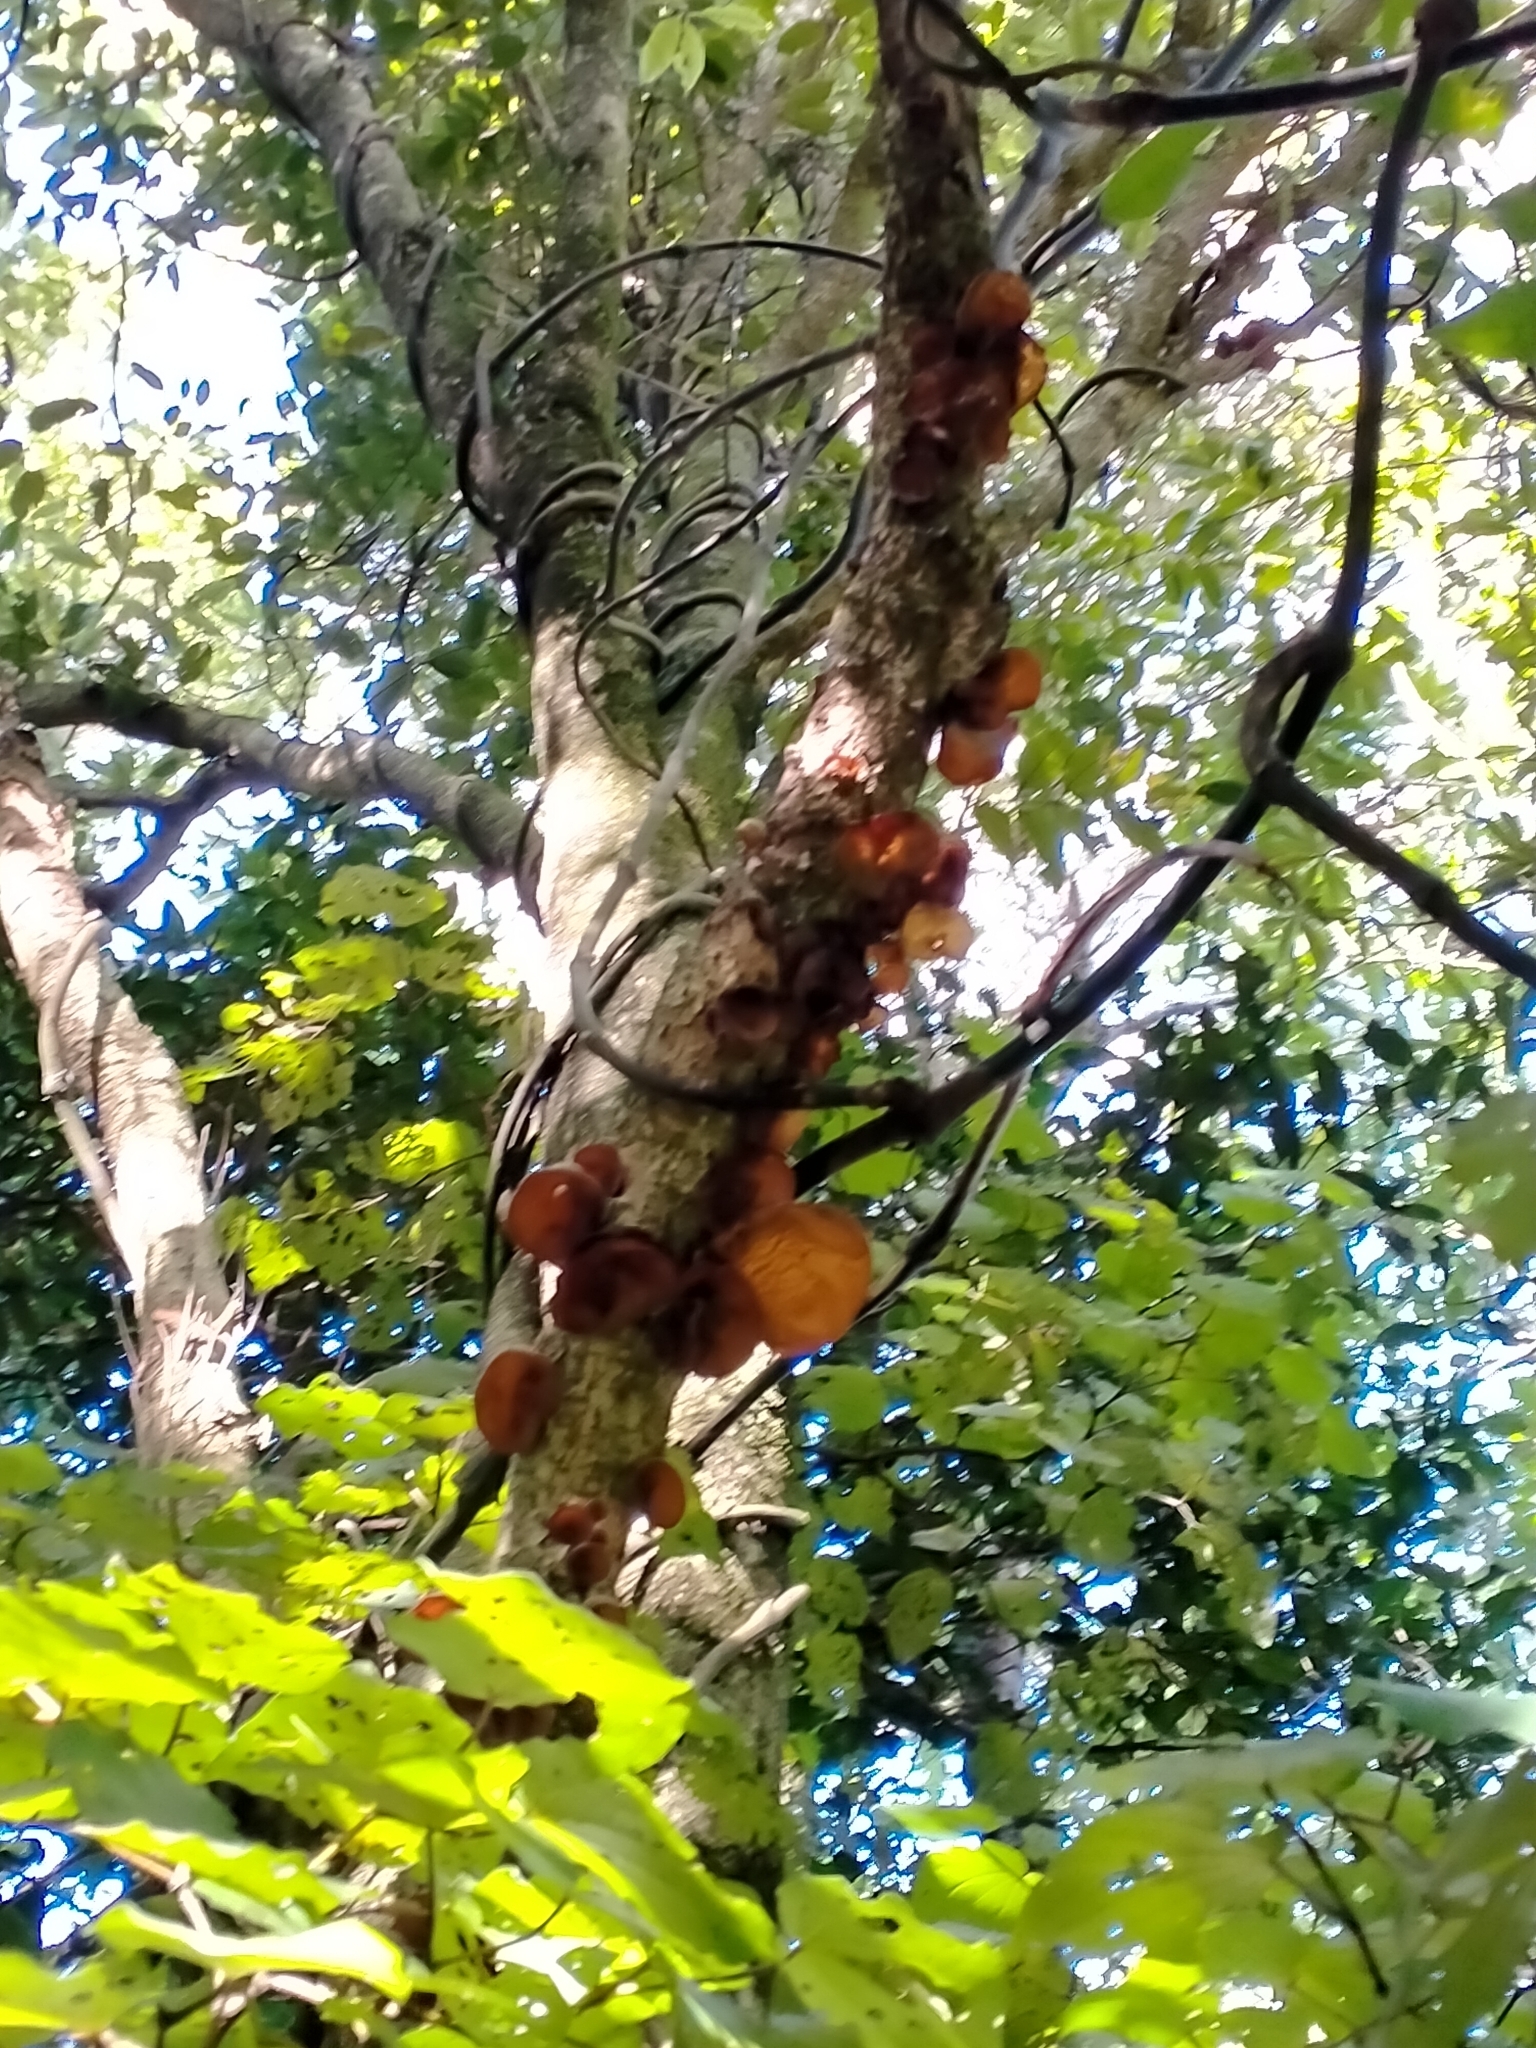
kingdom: Fungi
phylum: Basidiomycota
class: Agaricomycetes
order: Auriculariales
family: Auriculariaceae
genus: Auricularia
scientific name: Auricularia cornea
